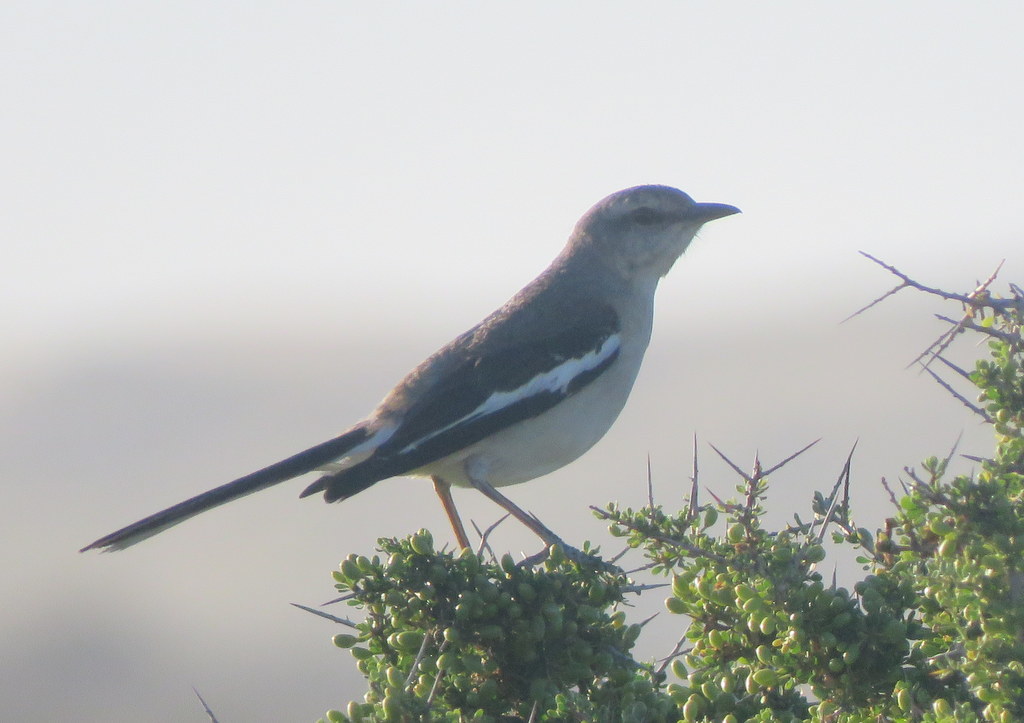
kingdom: Animalia
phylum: Chordata
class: Aves
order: Passeriformes
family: Mimidae
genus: Mimus
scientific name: Mimus triurus
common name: White-banded mockingbird
